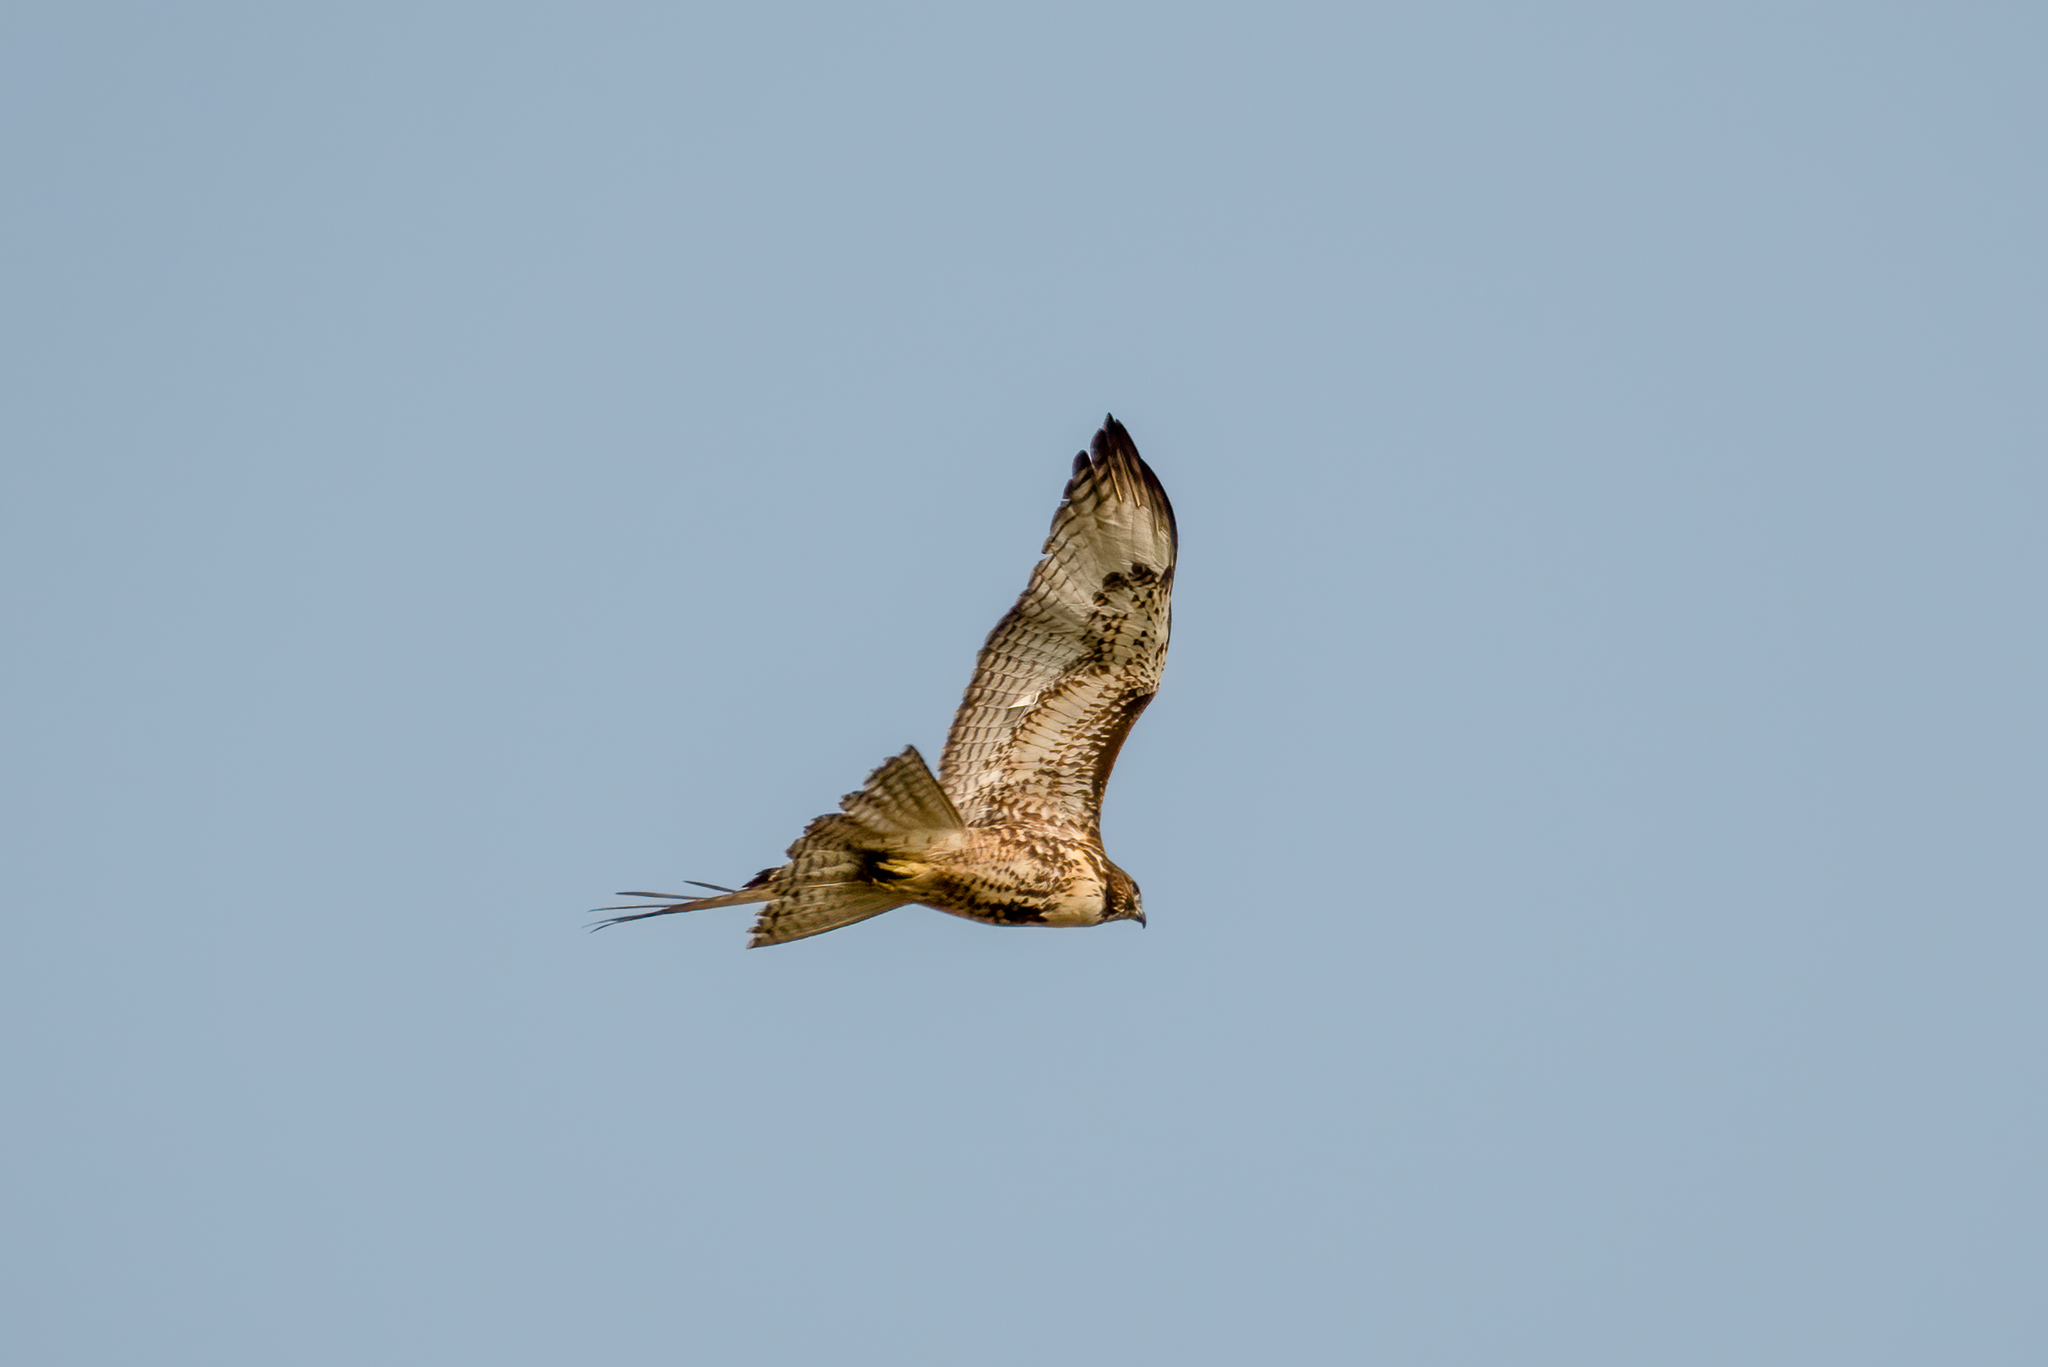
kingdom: Animalia
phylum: Chordata
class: Aves
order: Accipitriformes
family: Accipitridae
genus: Buteo
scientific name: Buteo jamaicensis
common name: Red-tailed hawk
